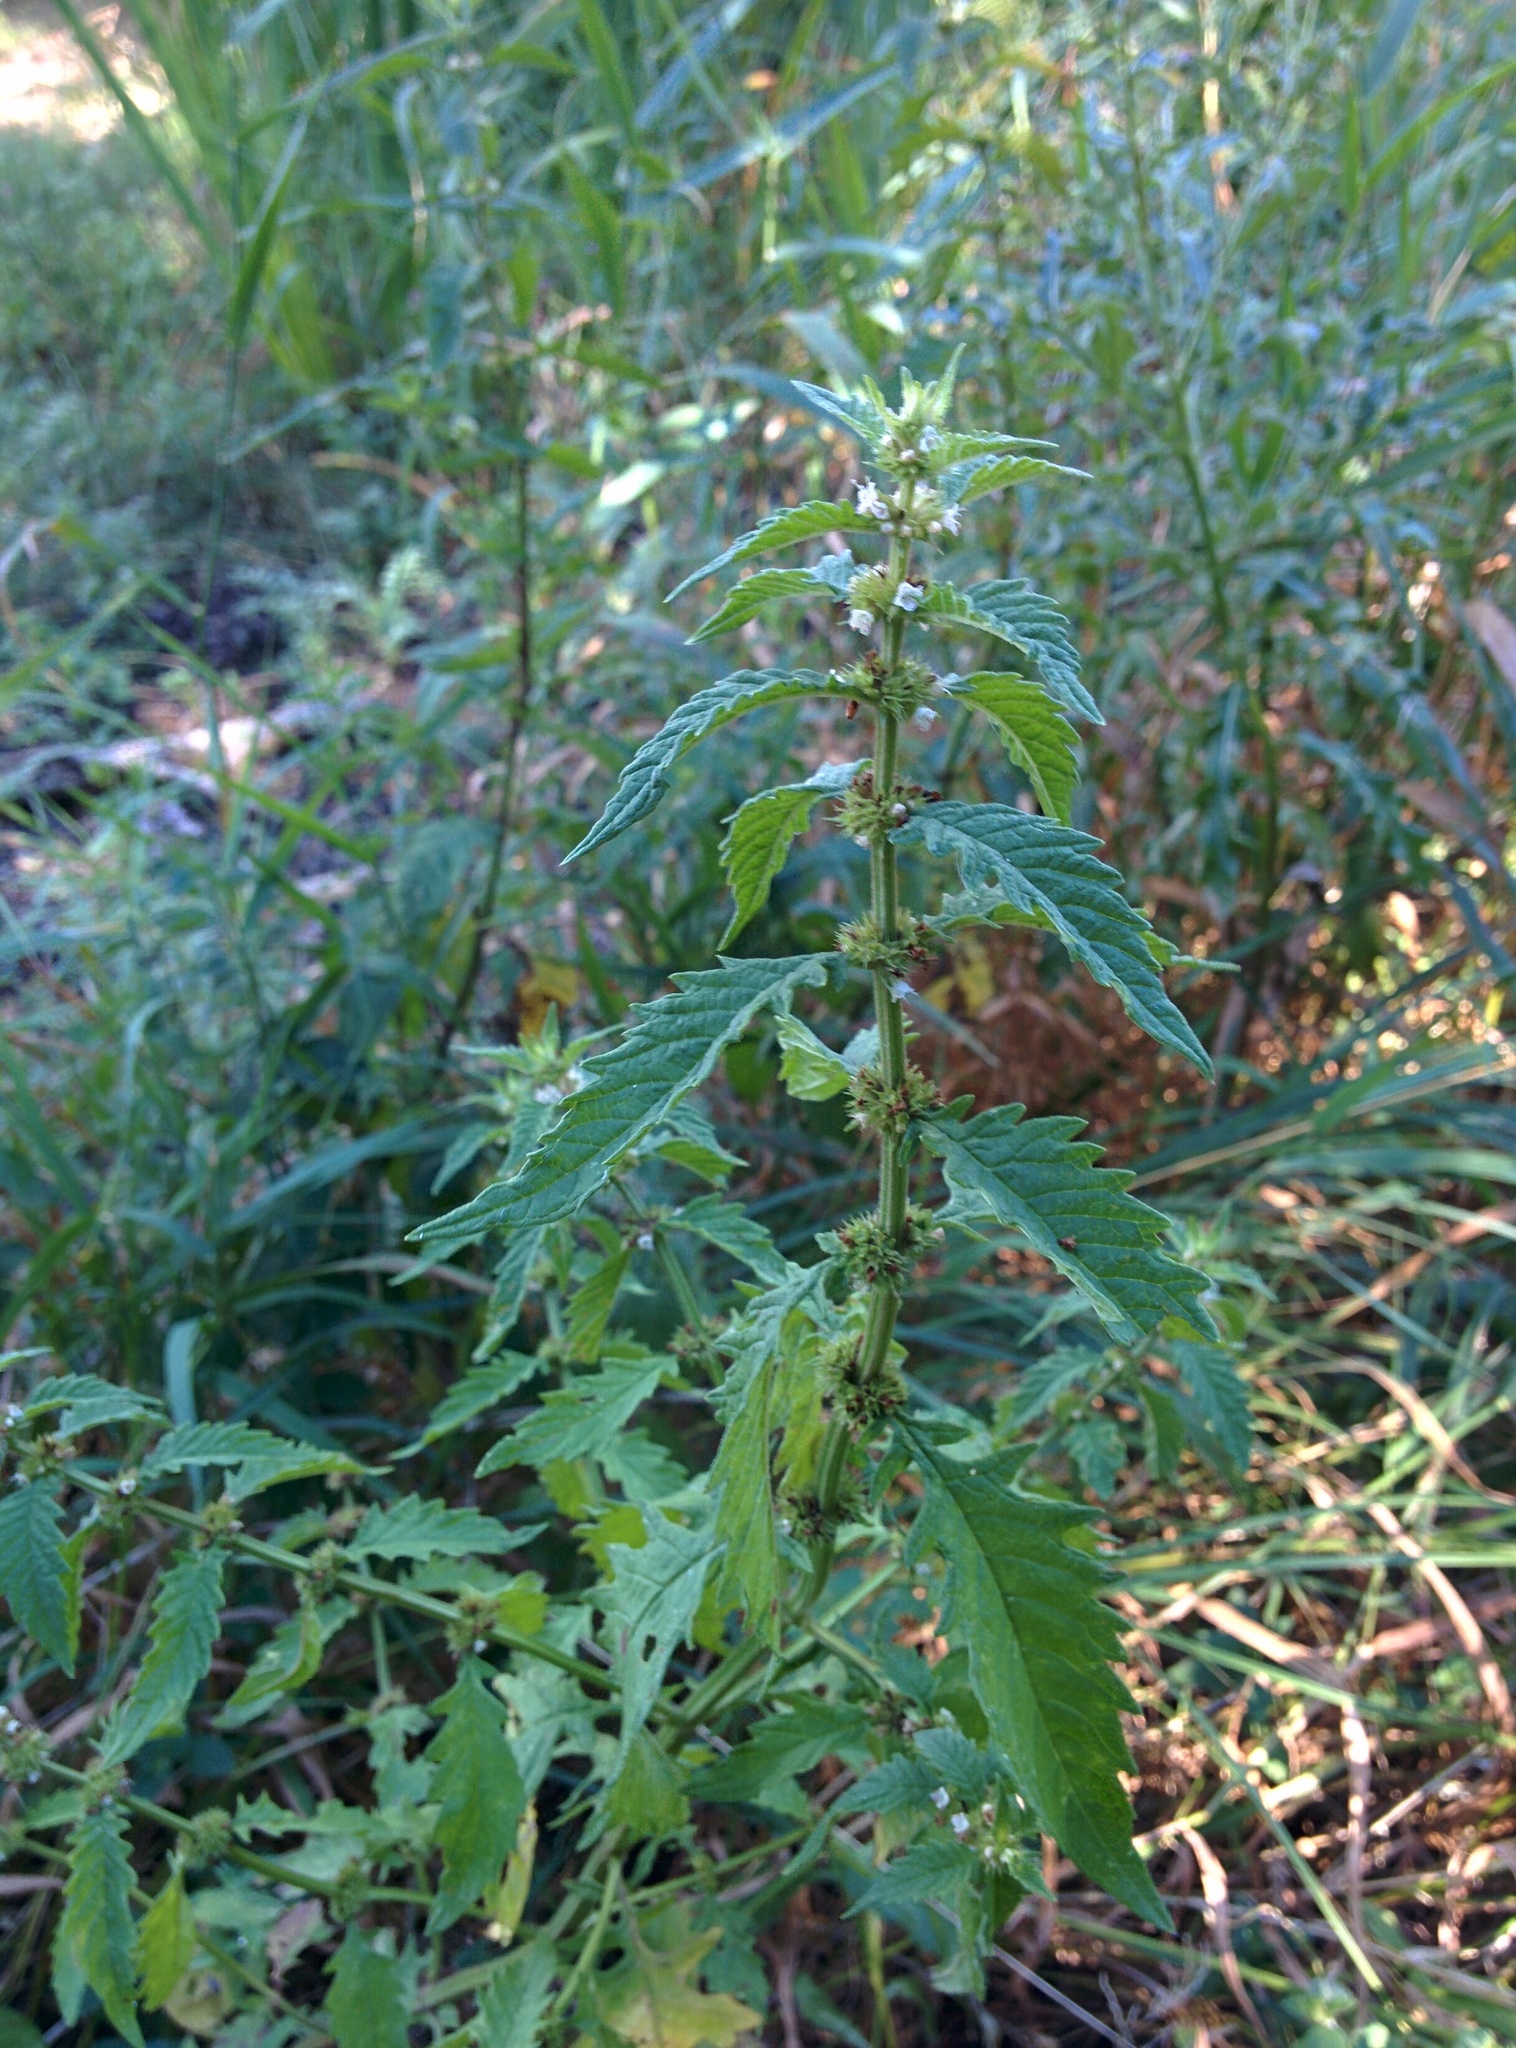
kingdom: Plantae
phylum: Tracheophyta
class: Magnoliopsida
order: Lamiales
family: Lamiaceae
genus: Lycopus
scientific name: Lycopus europaeus
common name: European bugleweed
